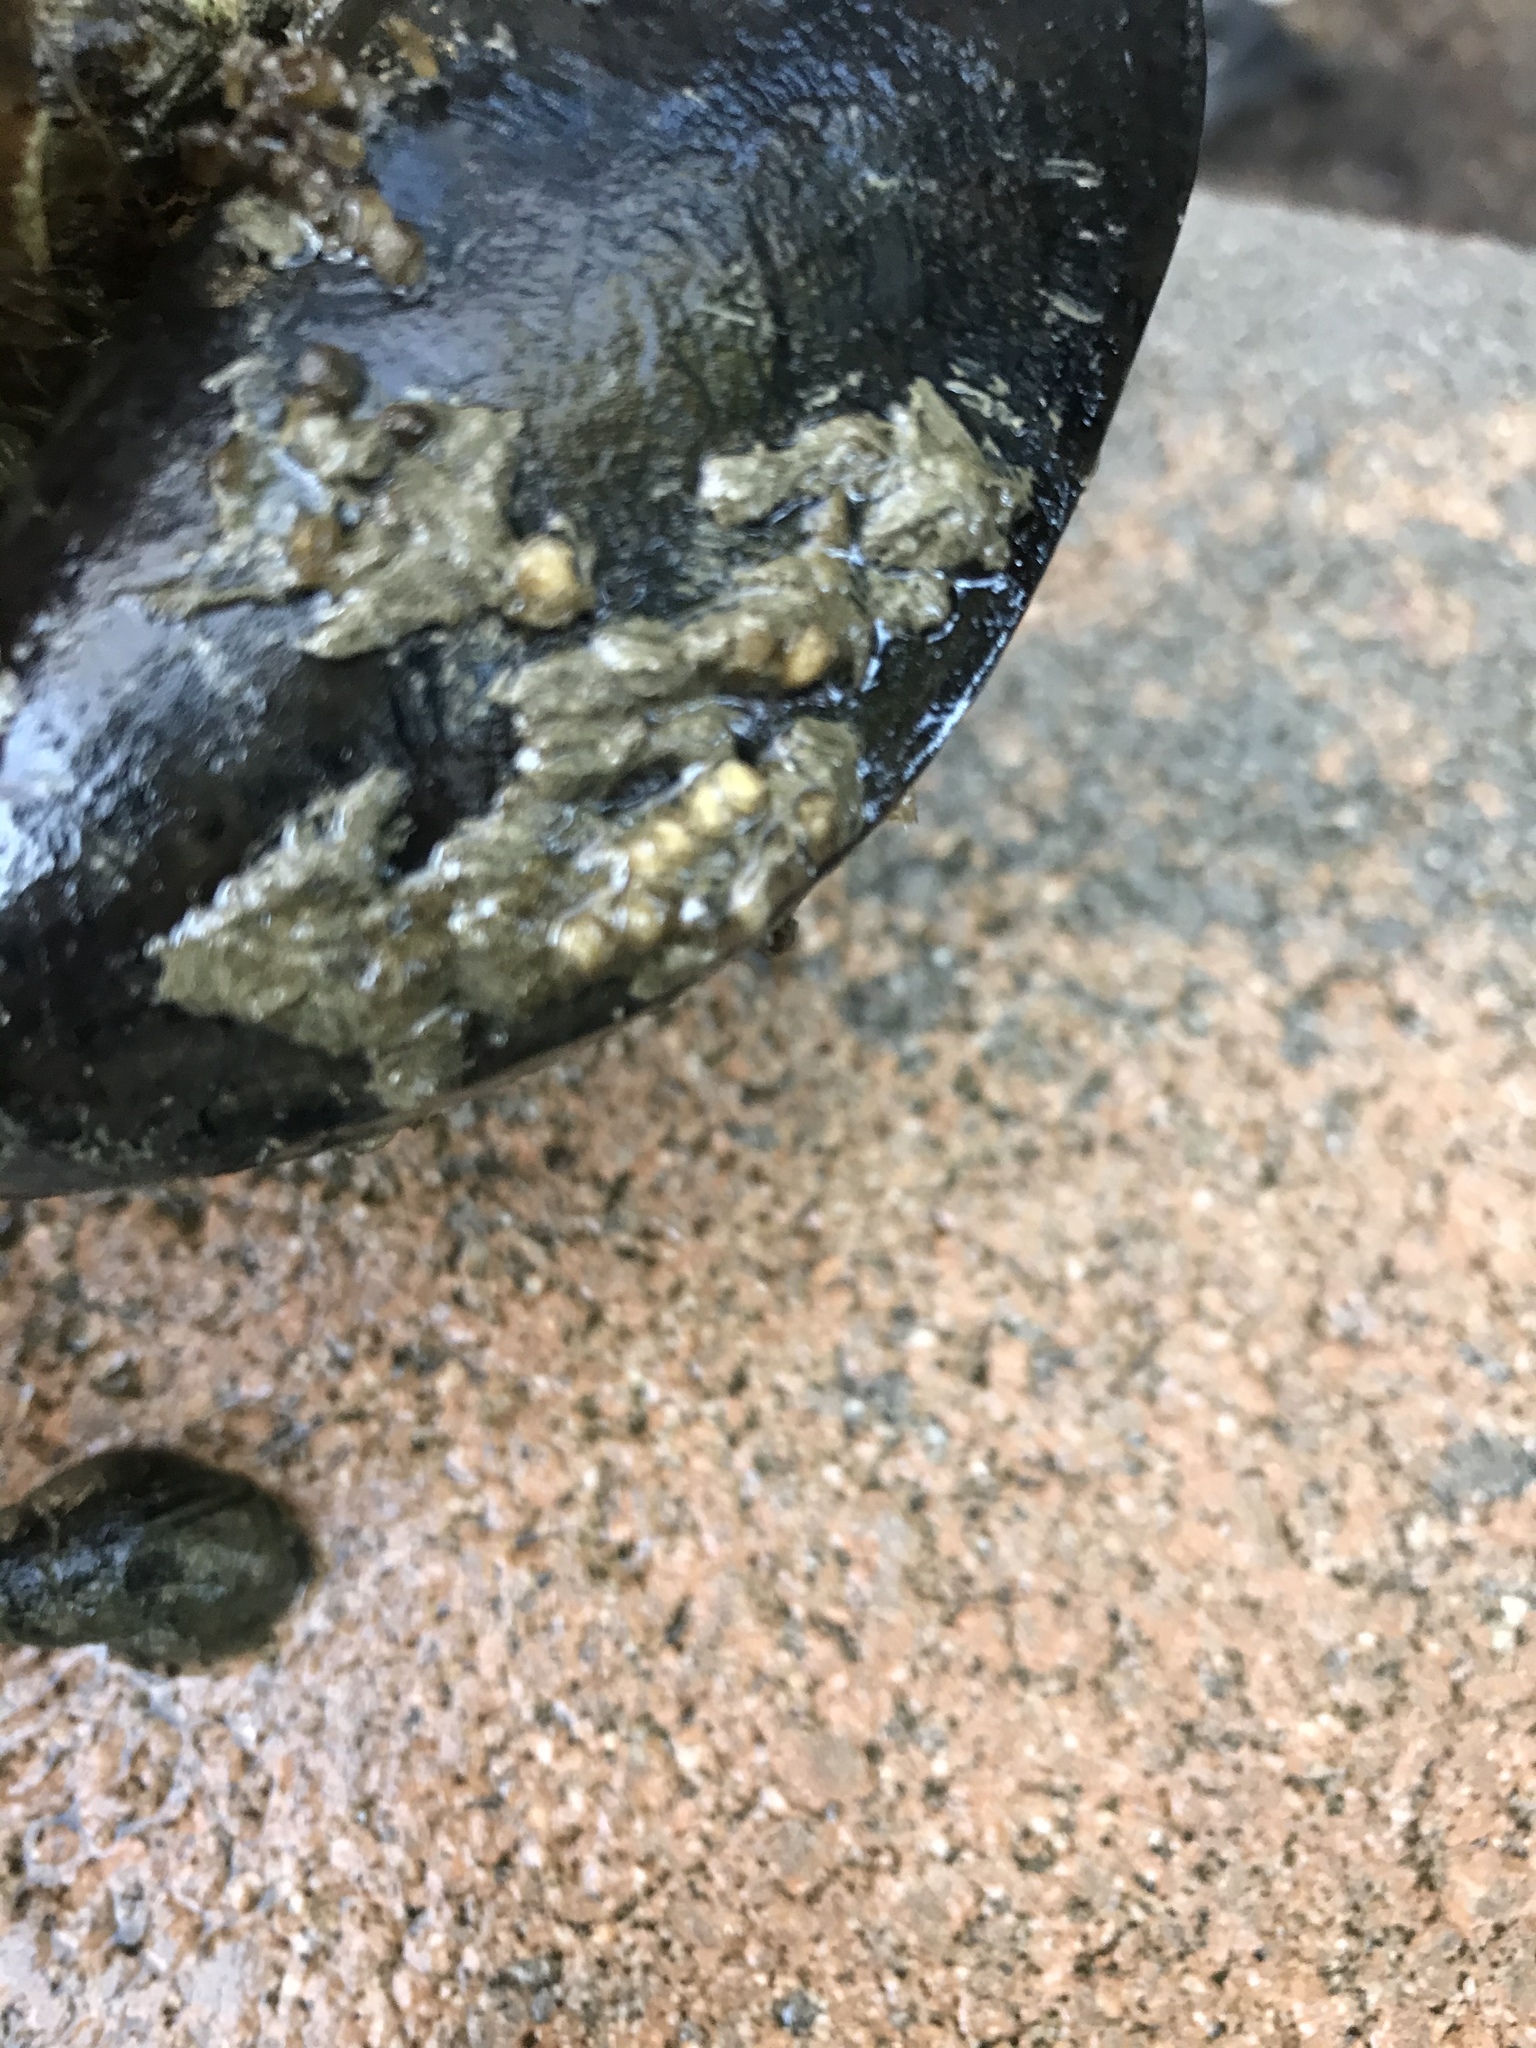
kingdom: Animalia
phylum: Mollusca
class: Gastropoda
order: Neogastropoda
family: Nassariidae
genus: Ilyanassa
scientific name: Ilyanassa obsoleta
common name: Eastern mudsnail
